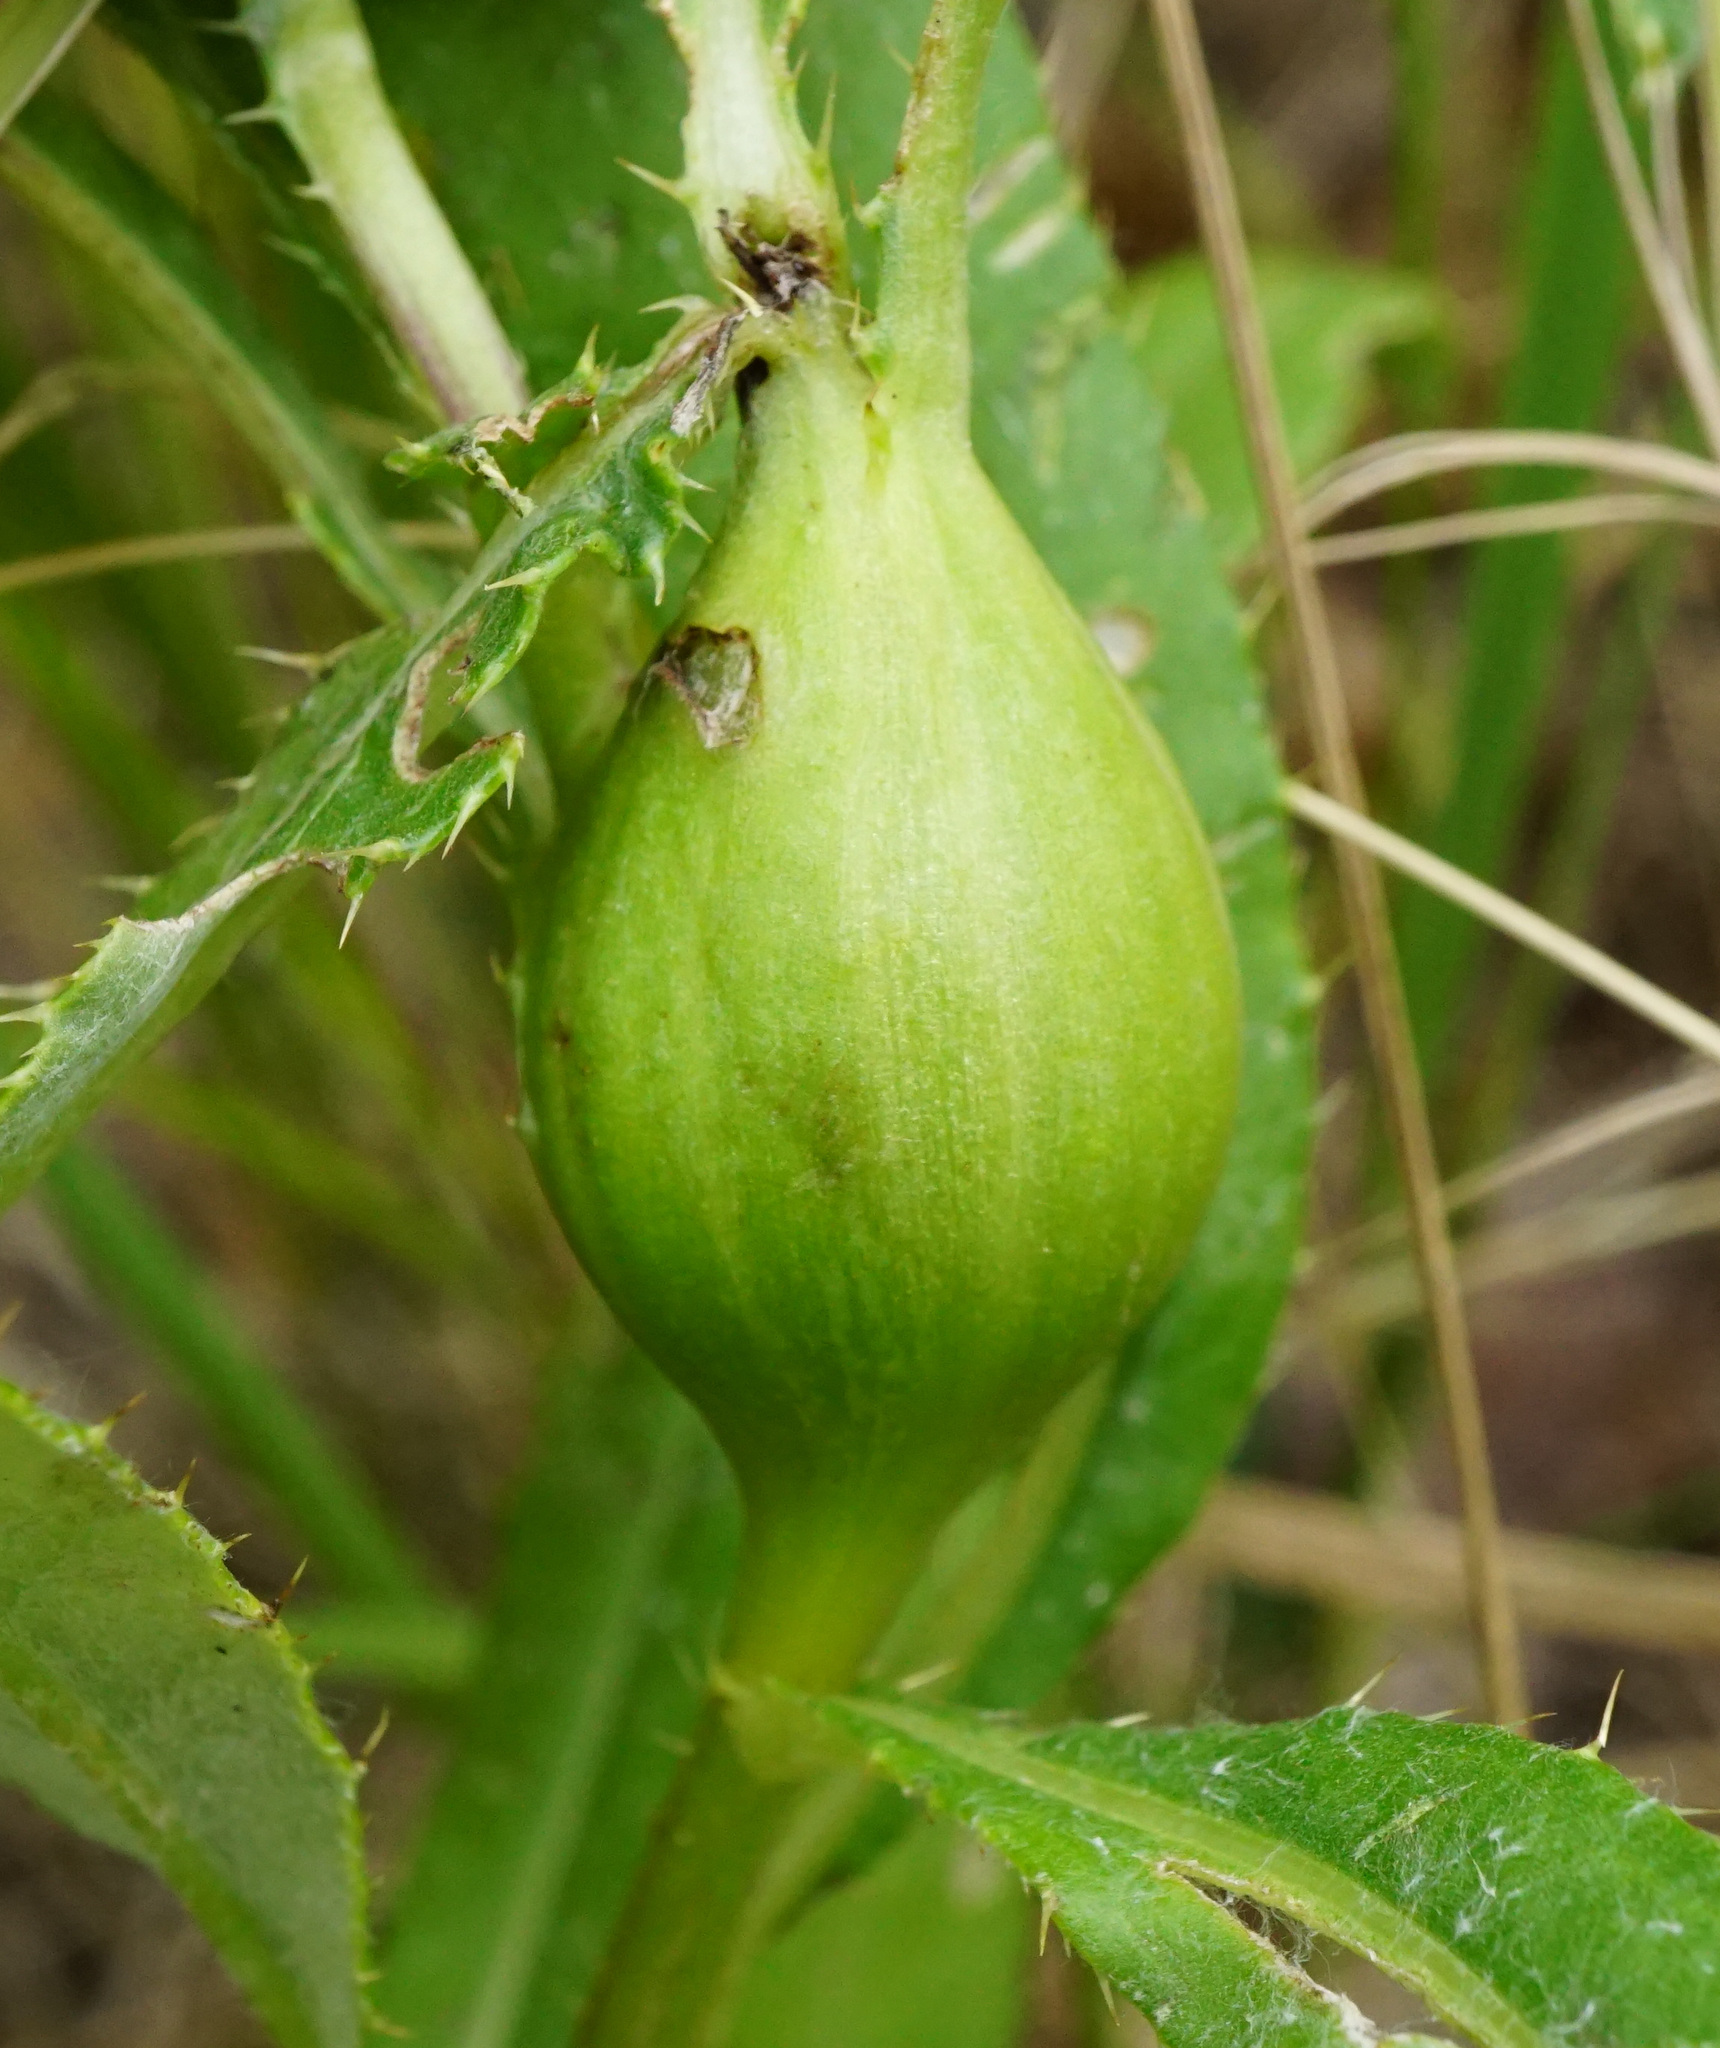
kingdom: Animalia
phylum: Arthropoda
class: Insecta
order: Diptera
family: Tephritidae
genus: Urophora
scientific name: Urophora cardui
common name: Fruit fly
